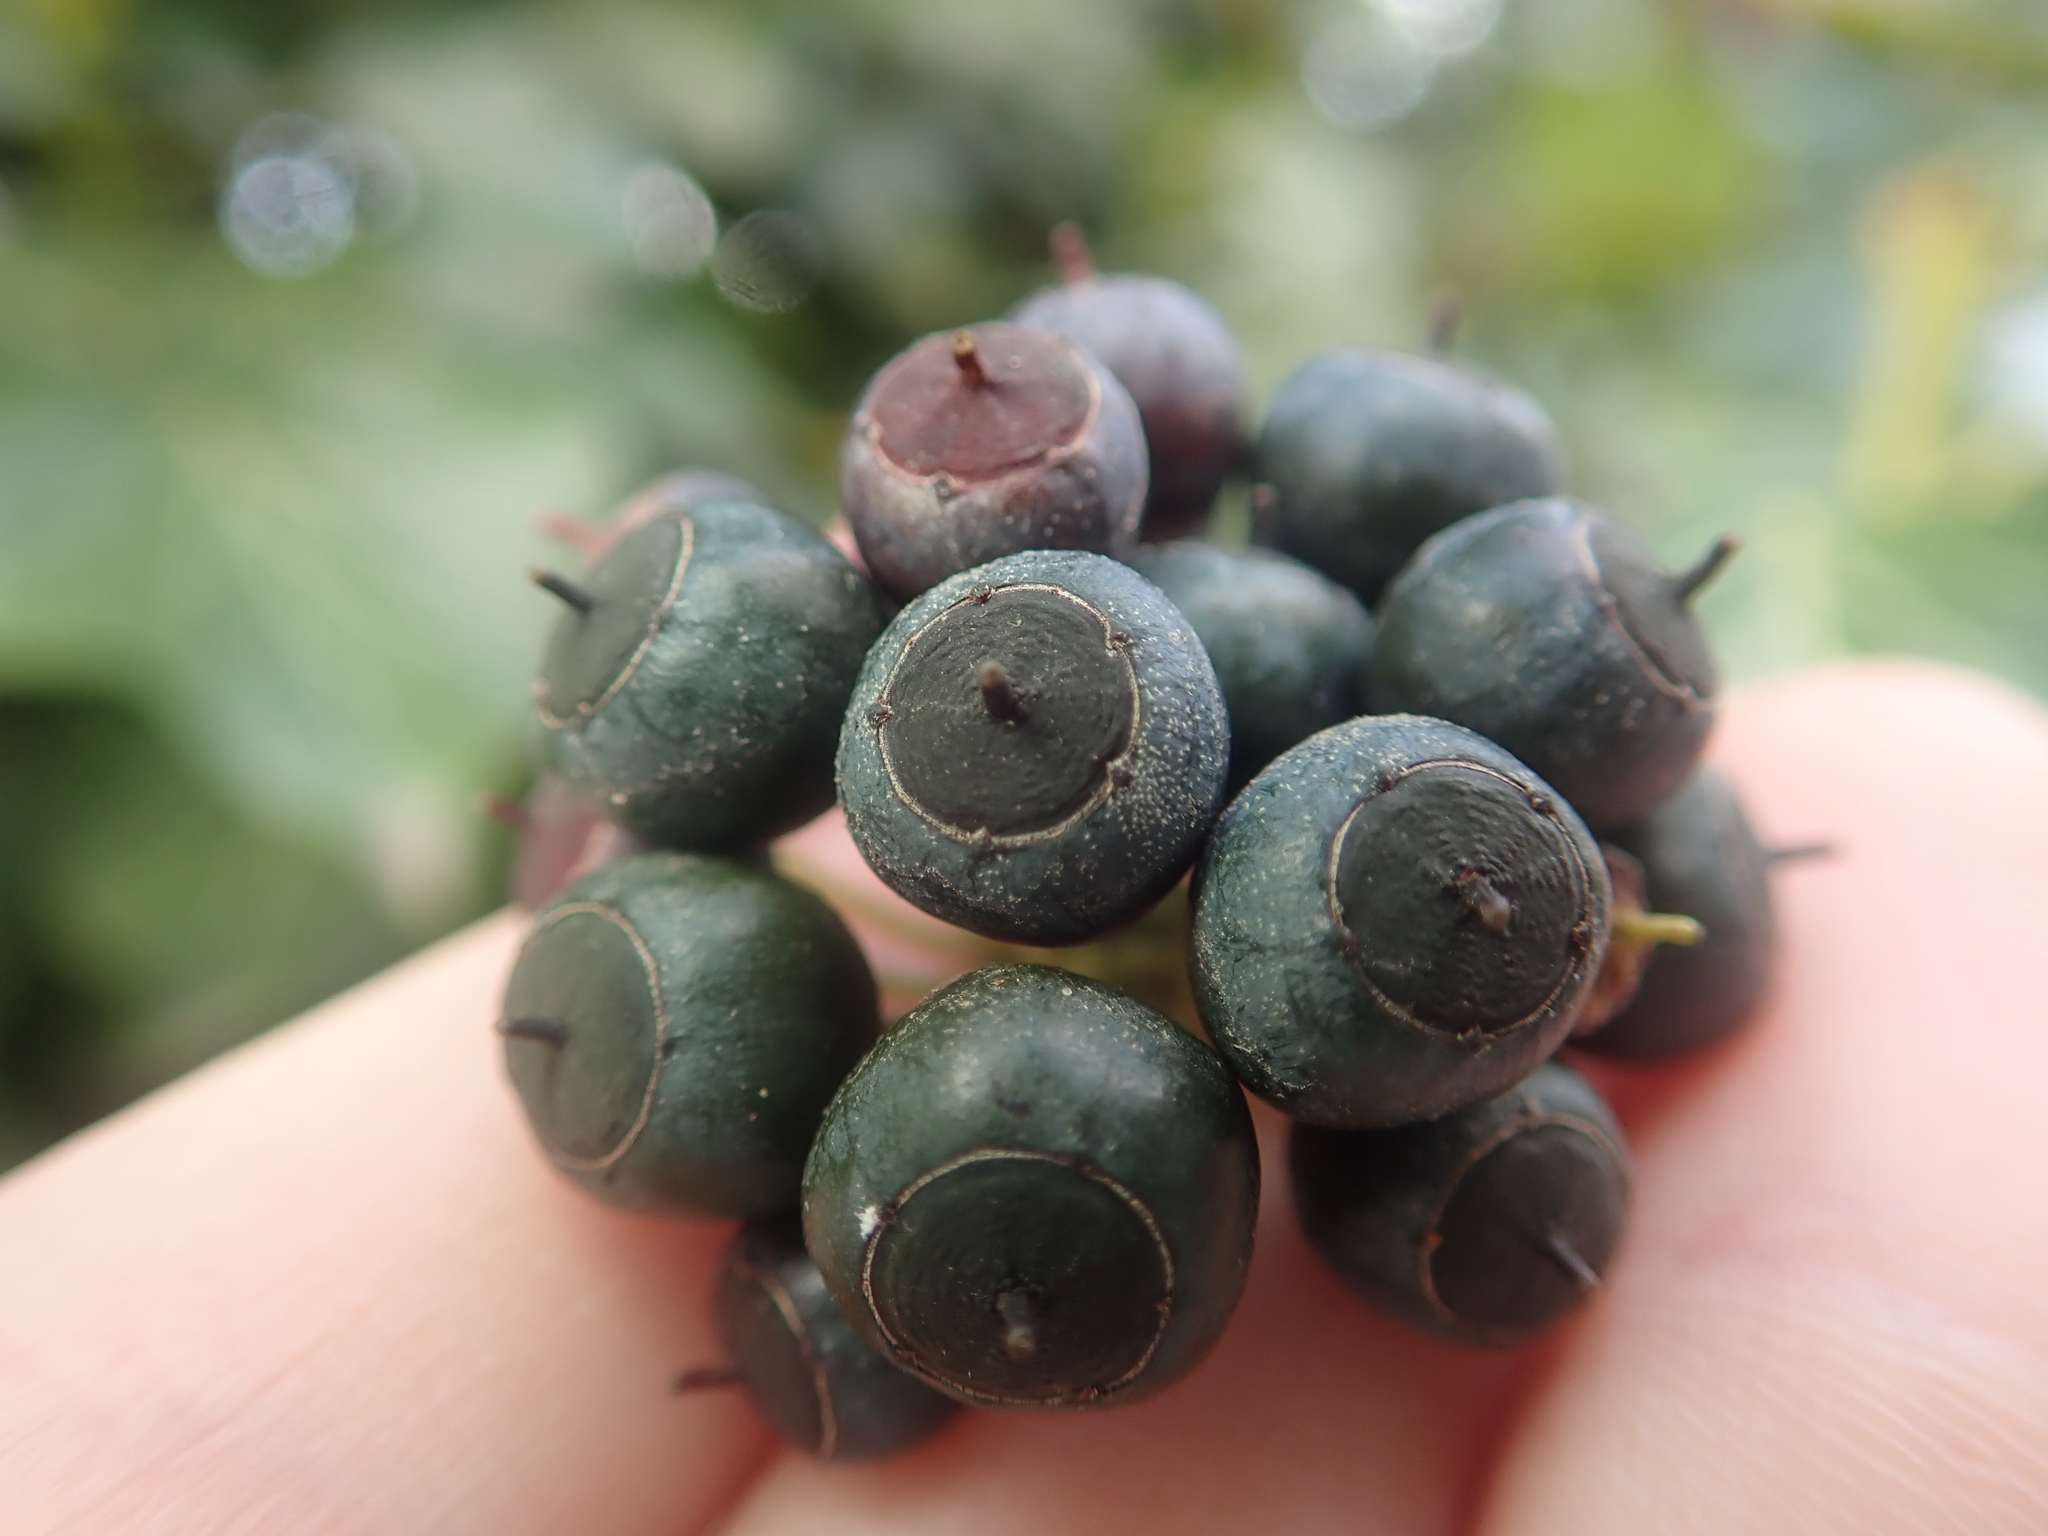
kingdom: Plantae
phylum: Tracheophyta
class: Magnoliopsida
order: Apiales
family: Araliaceae
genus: Hedera
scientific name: Hedera helix
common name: Ivy
